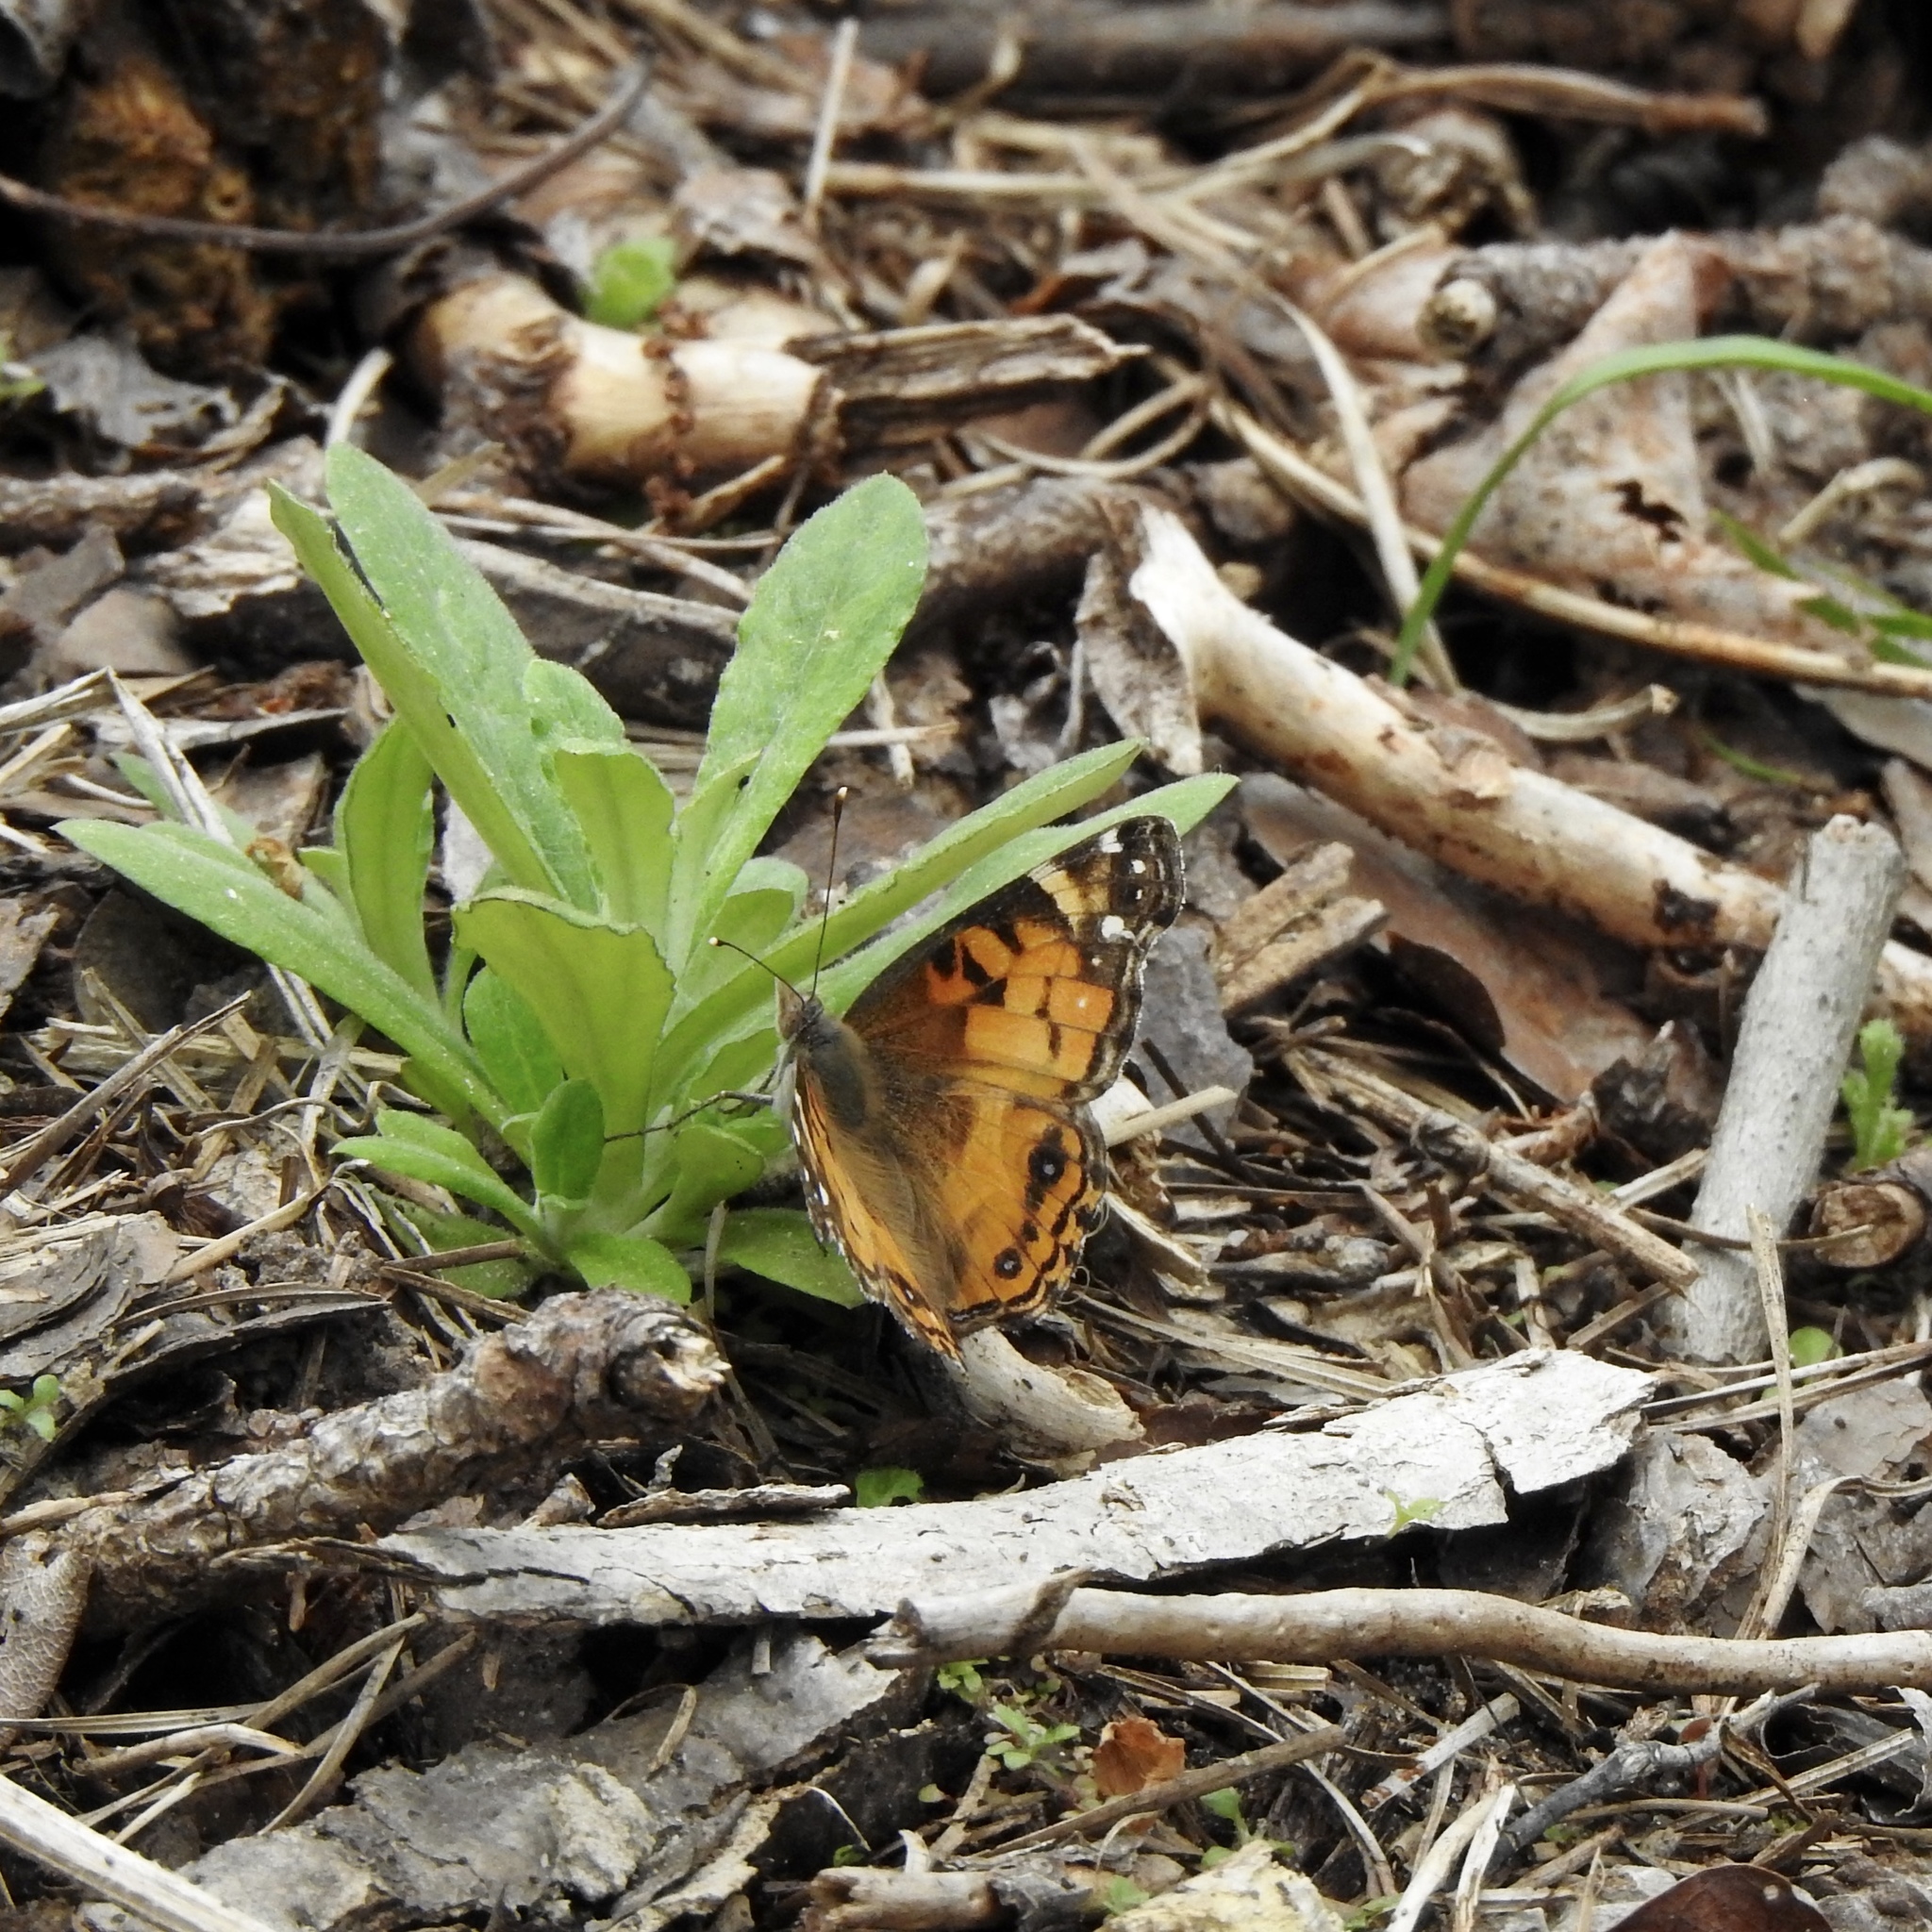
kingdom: Animalia
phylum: Arthropoda
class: Insecta
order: Lepidoptera
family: Nymphalidae
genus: Vanessa
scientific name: Vanessa virginiensis
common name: American lady
